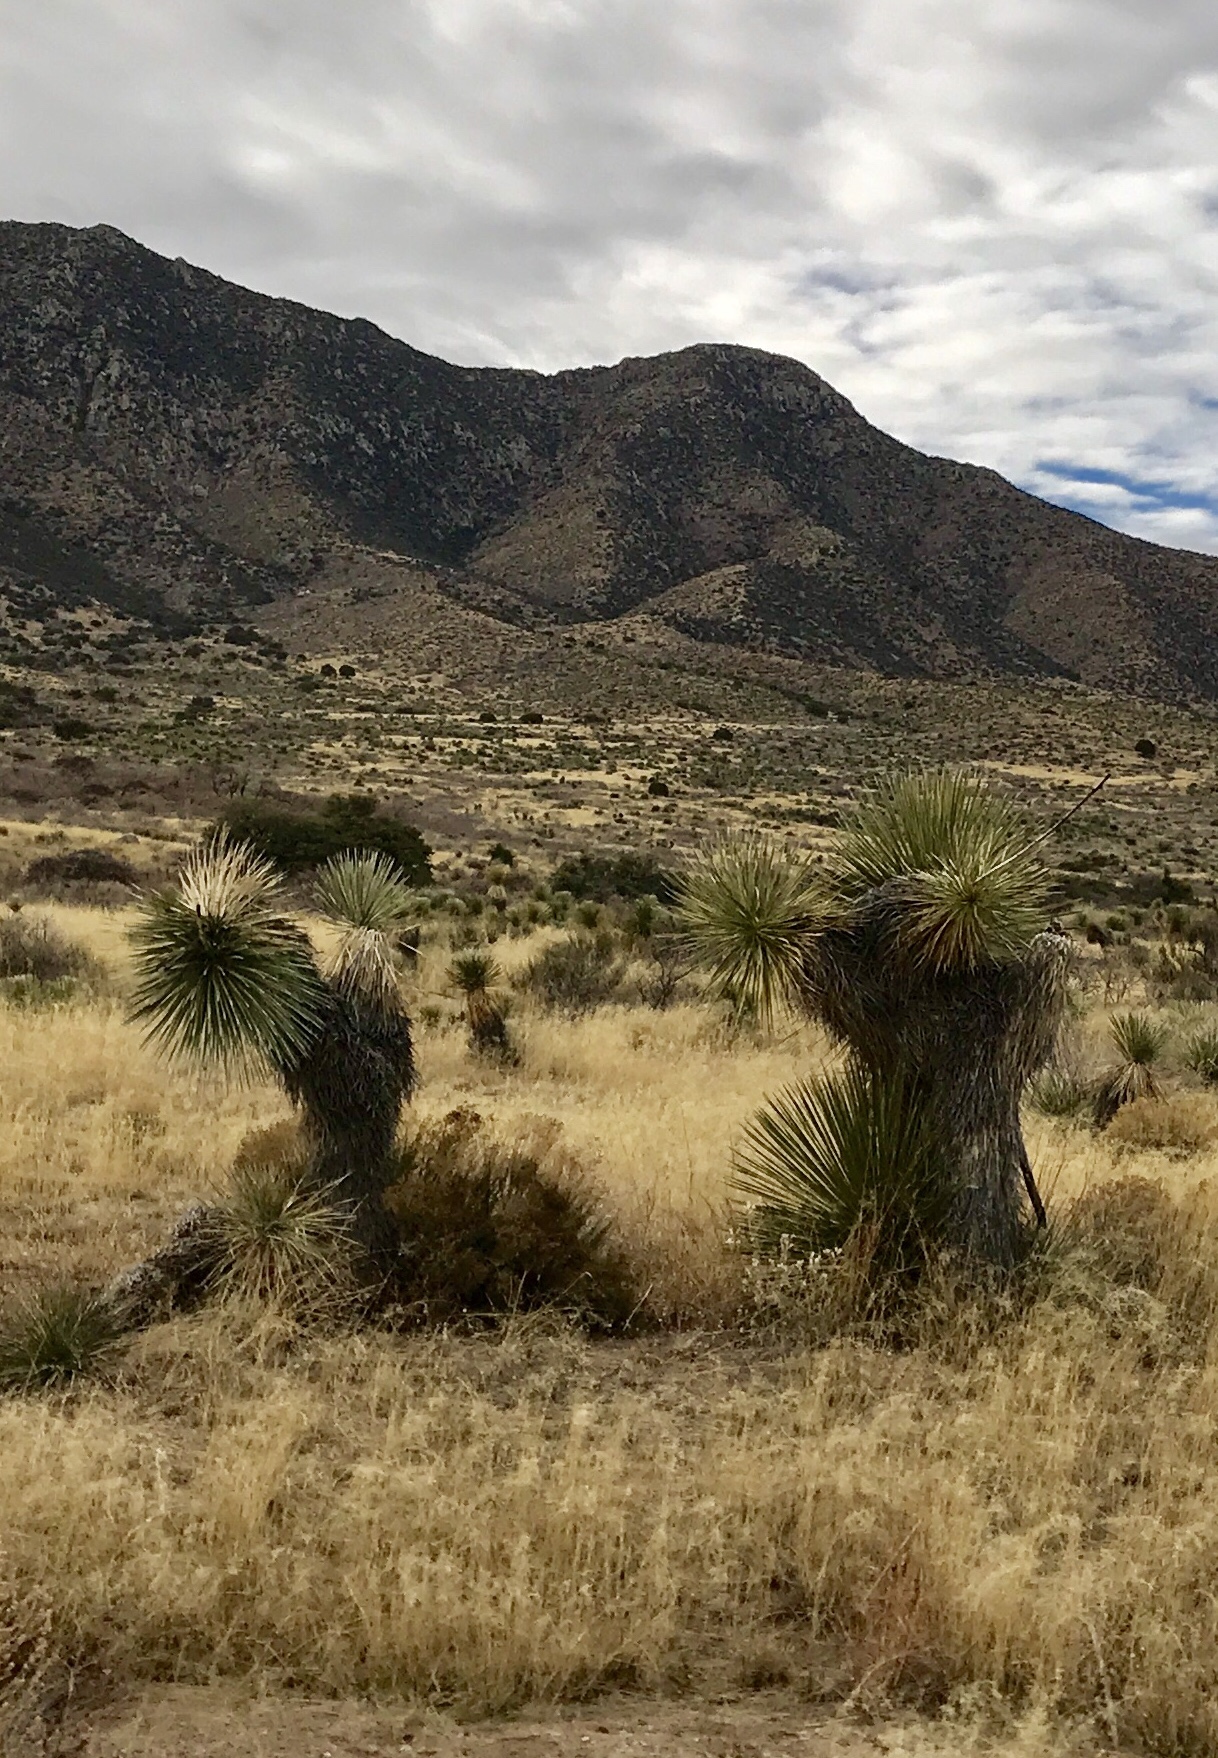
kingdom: Plantae
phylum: Tracheophyta
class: Liliopsida
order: Asparagales
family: Asparagaceae
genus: Yucca
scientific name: Yucca elata
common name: Palmella
